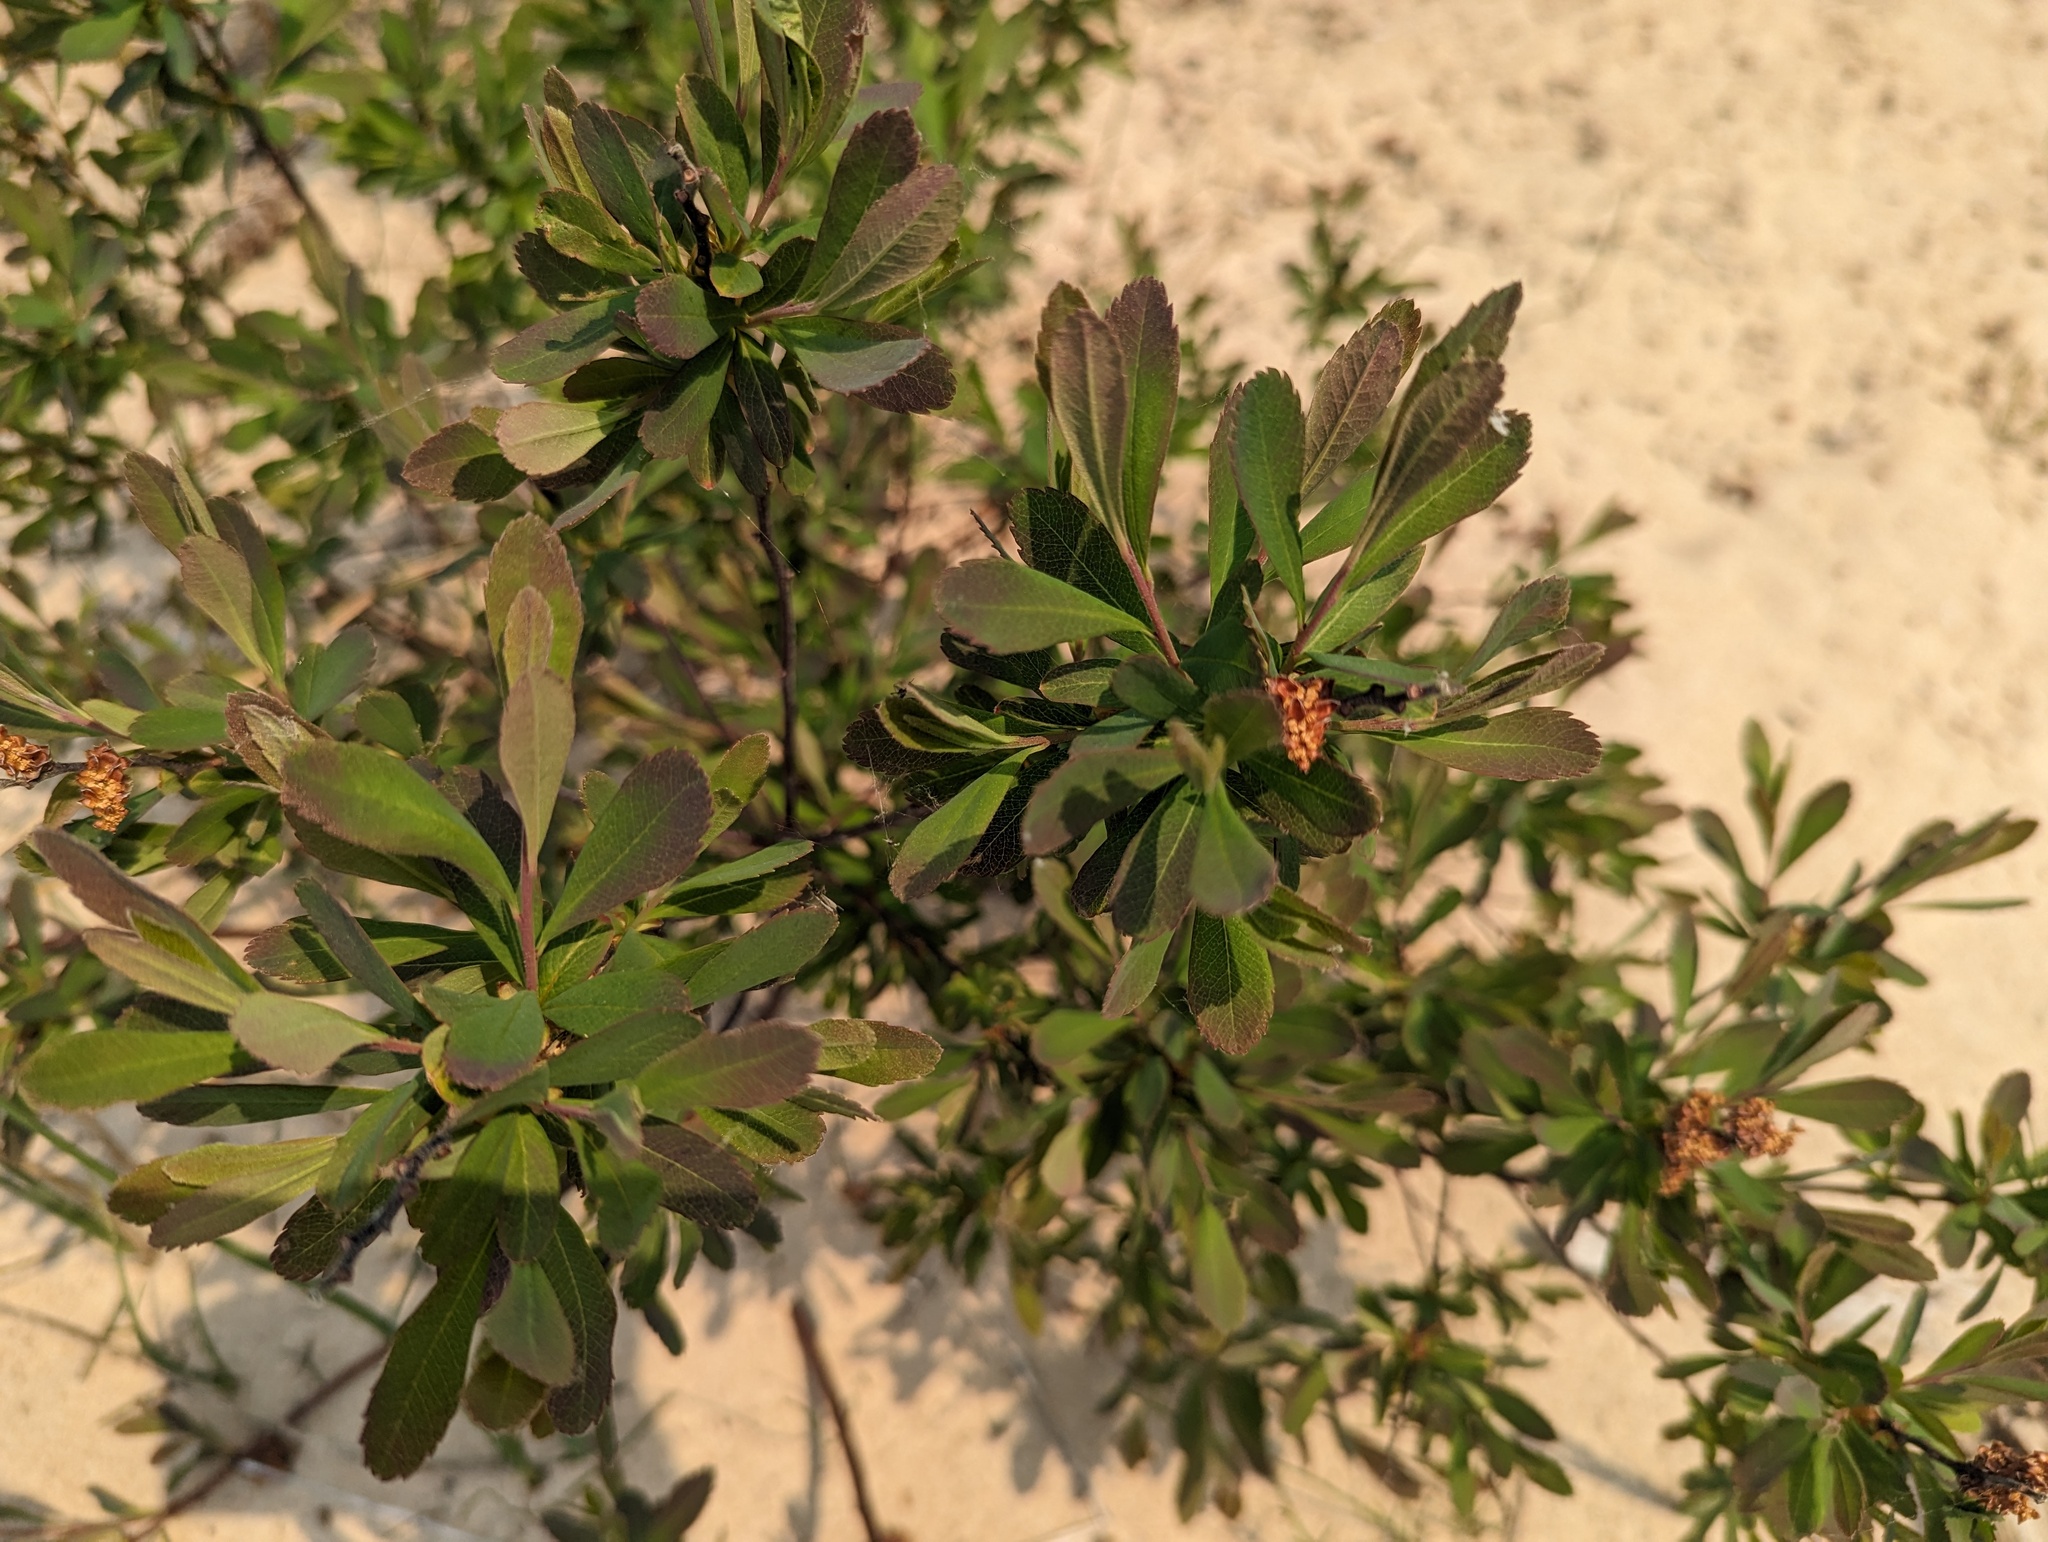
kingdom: Plantae
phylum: Tracheophyta
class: Magnoliopsida
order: Fagales
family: Myricaceae
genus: Myrica
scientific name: Myrica gale
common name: Sweet gale
